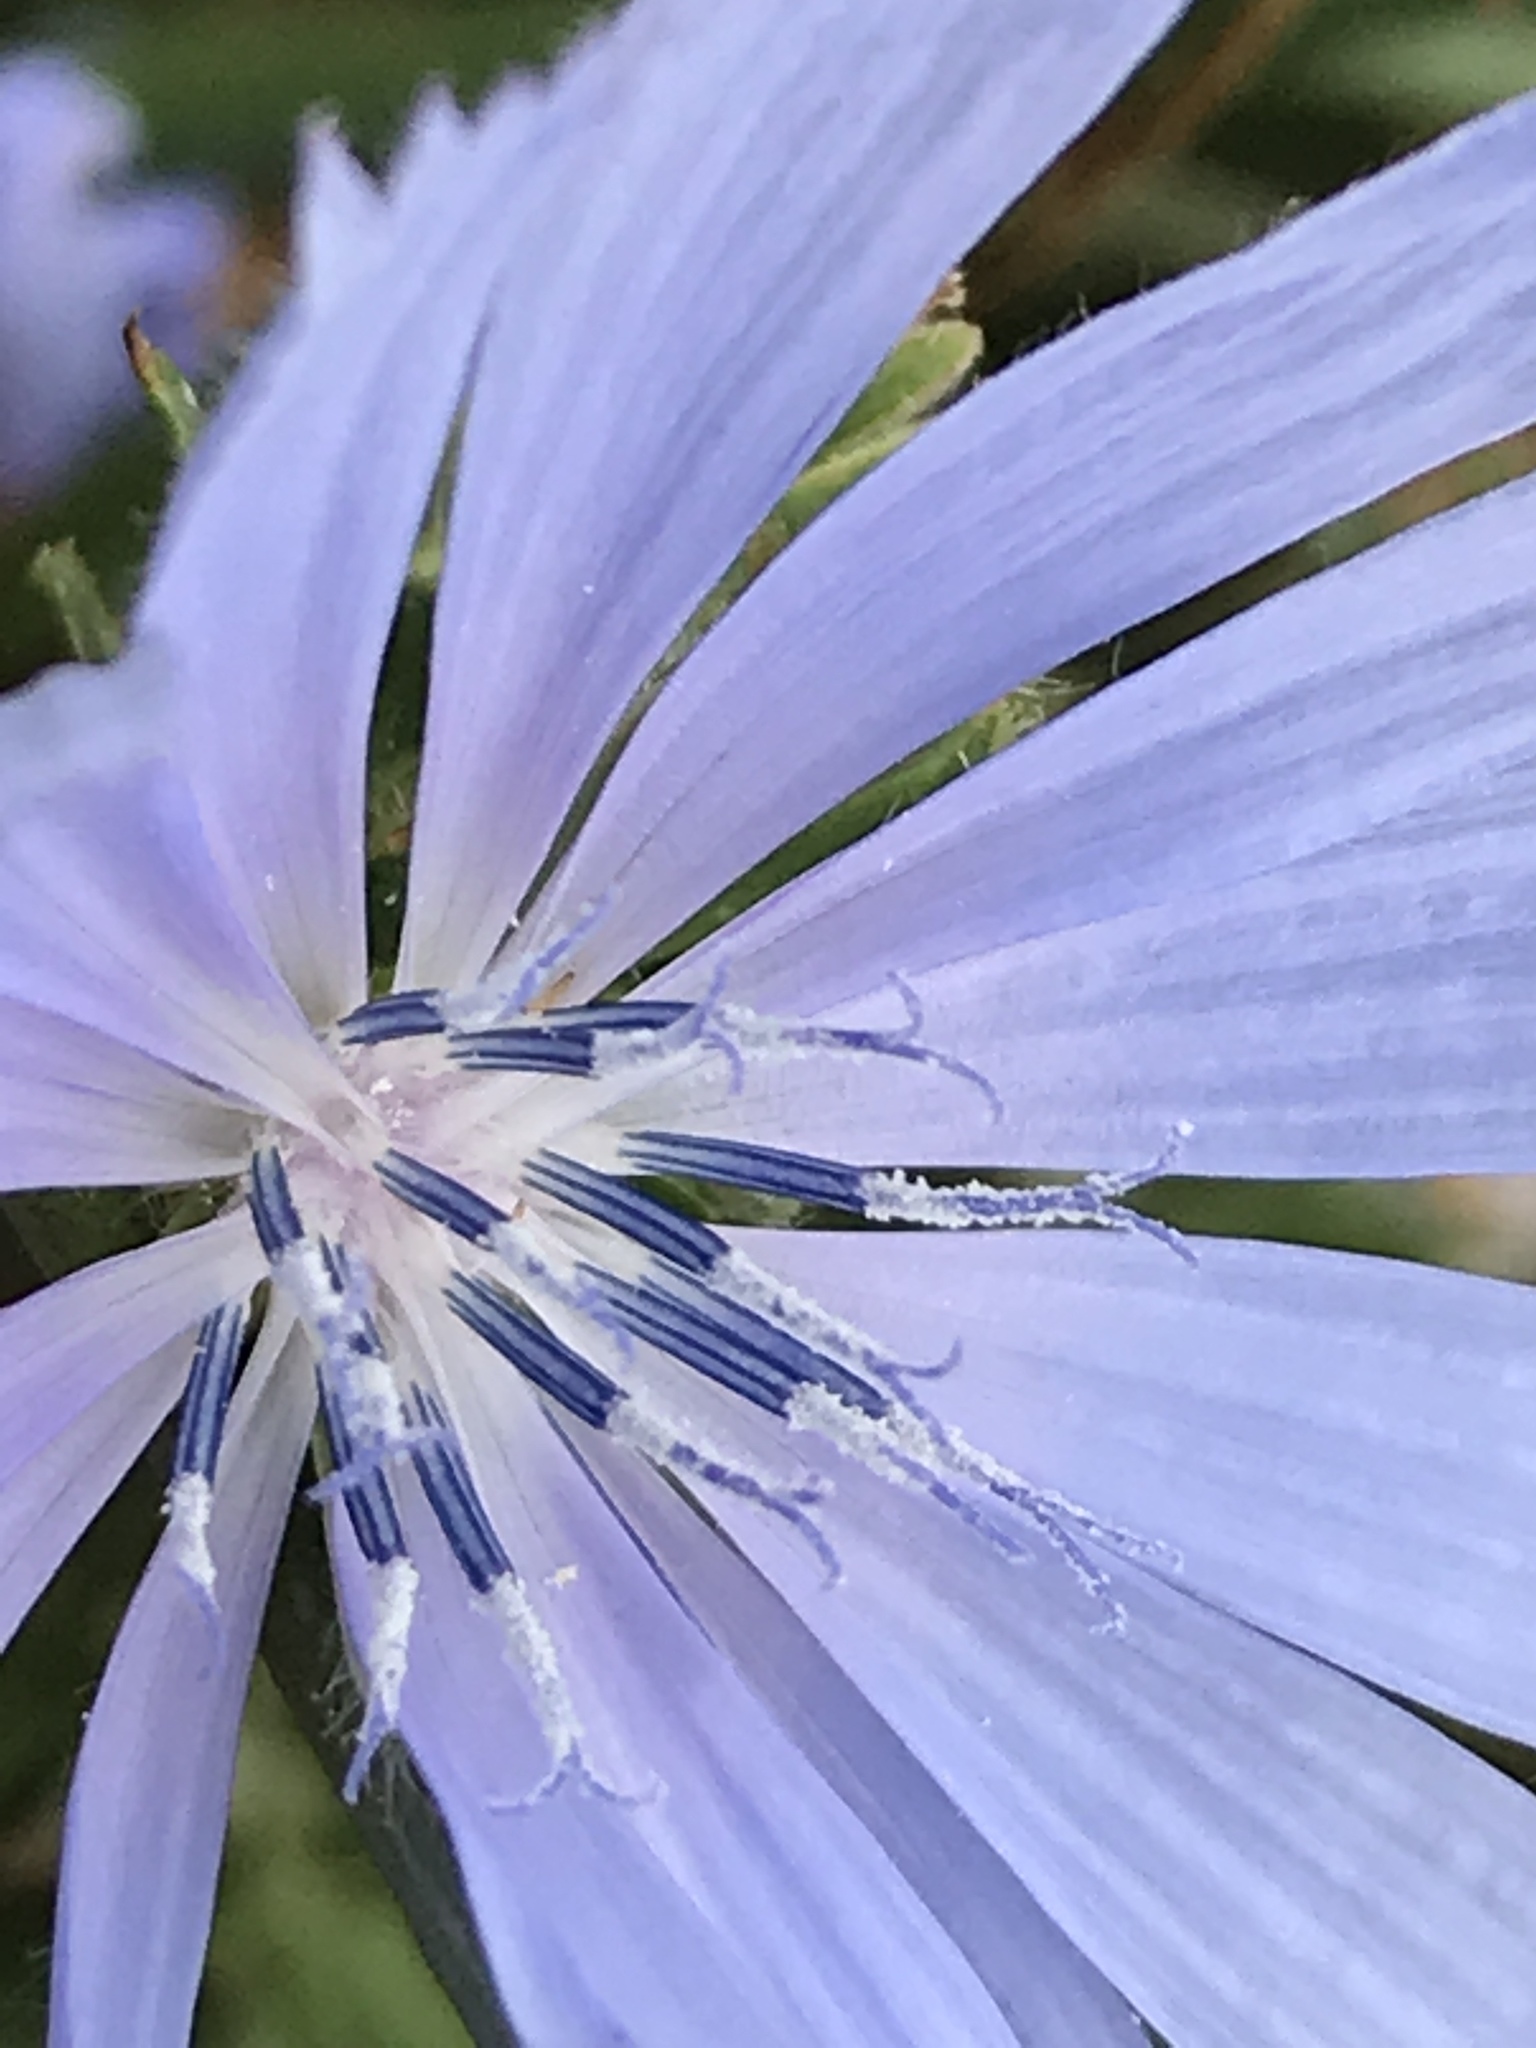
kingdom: Plantae
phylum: Tracheophyta
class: Magnoliopsida
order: Asterales
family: Asteraceae
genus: Cichorium
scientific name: Cichorium intybus
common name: Chicory
